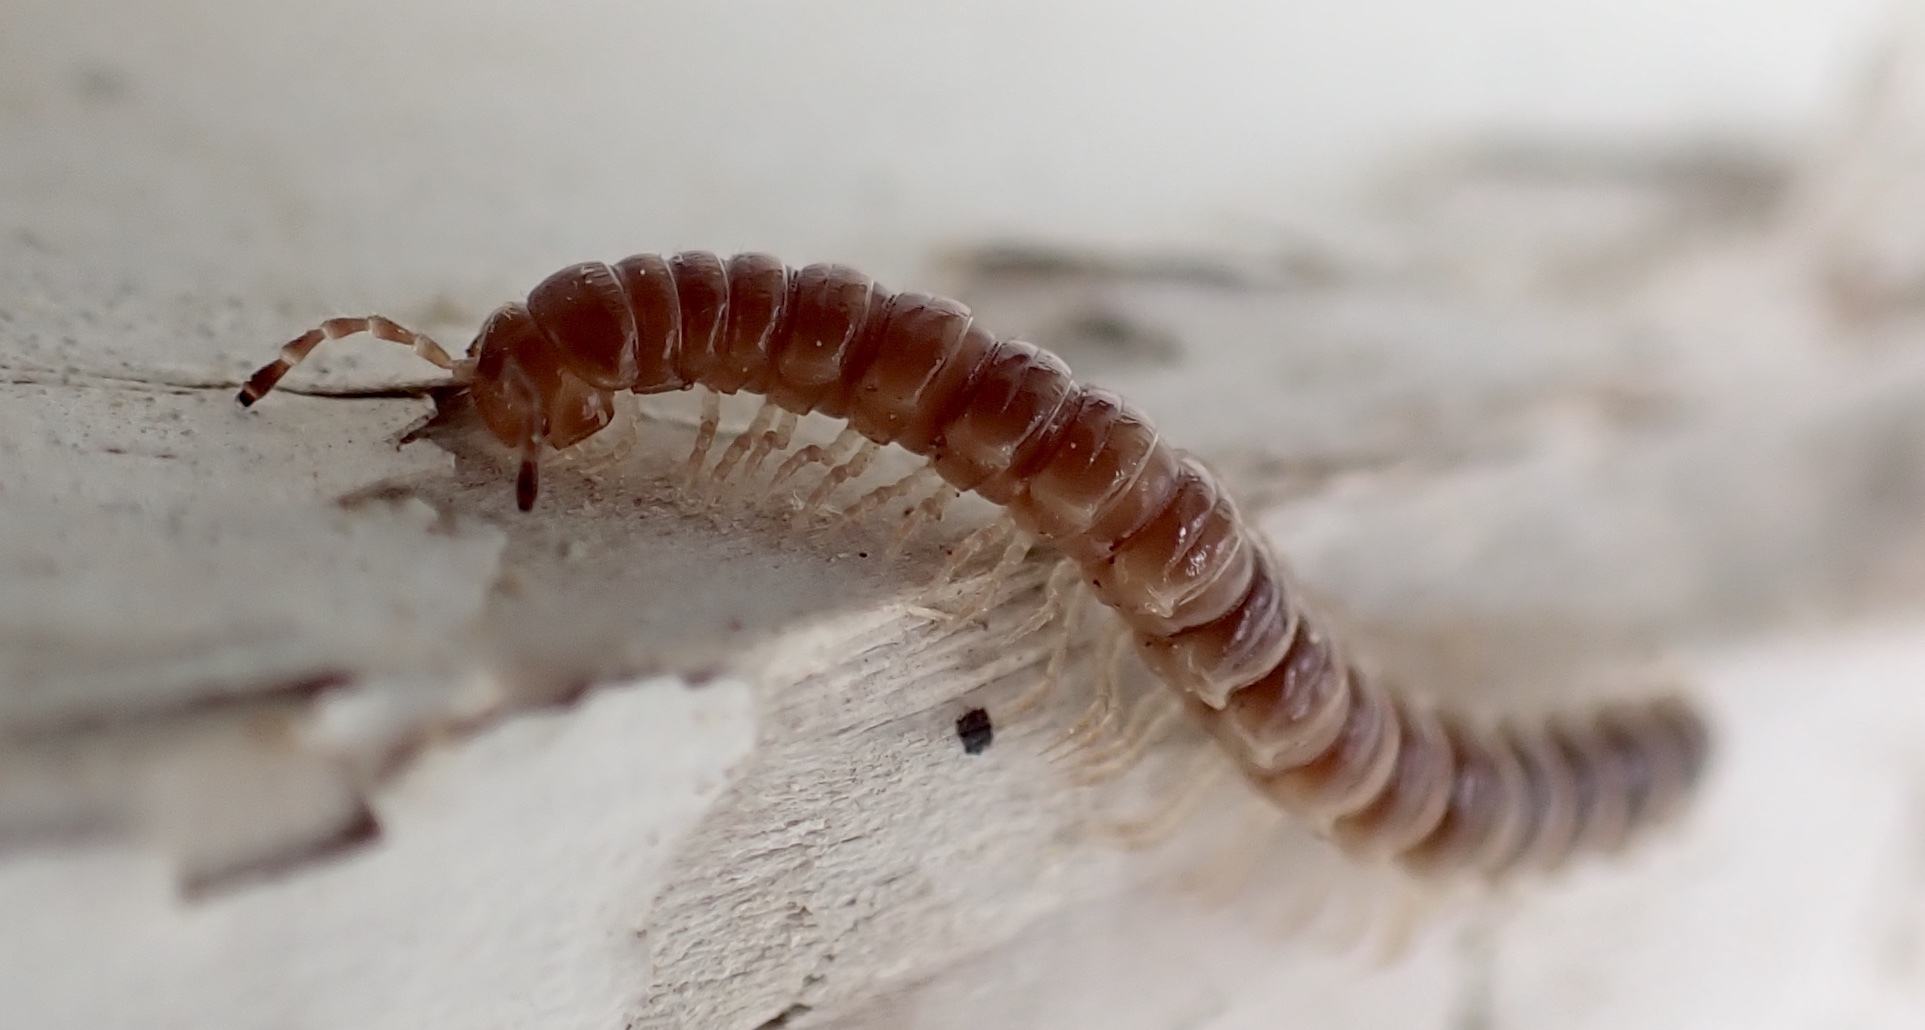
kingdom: Animalia
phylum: Arthropoda
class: Diplopoda
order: Polydesmida
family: Paradoxosomatidae
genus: Oxidus
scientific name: Oxidus gracilis
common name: Greenhouse millipede
